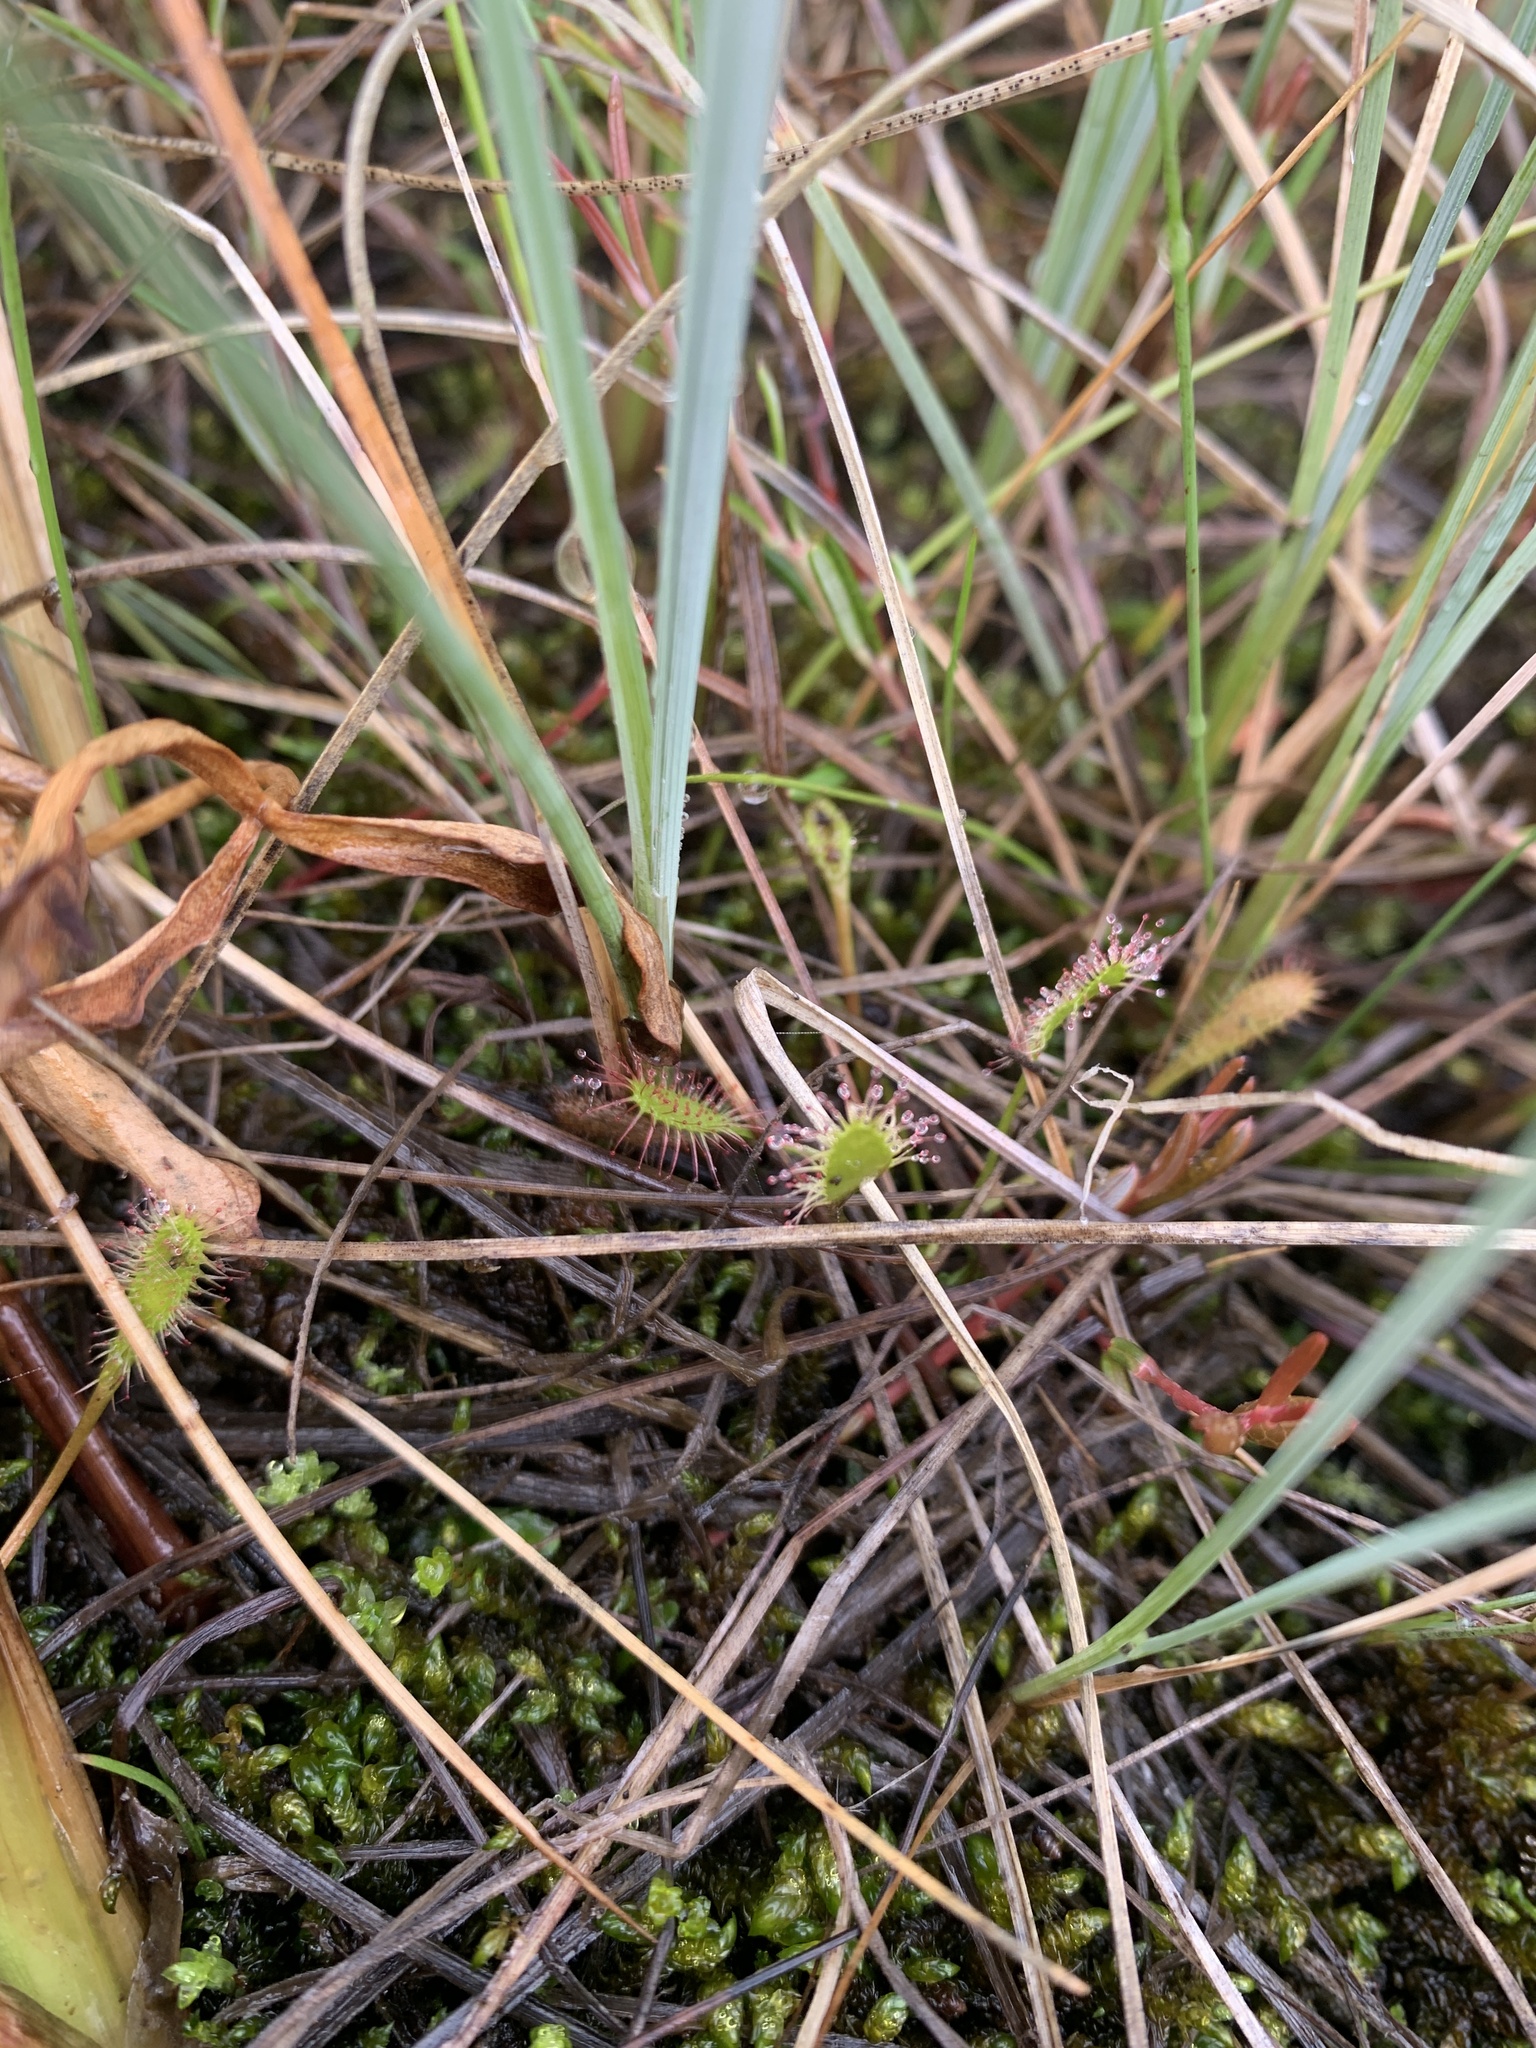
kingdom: Plantae
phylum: Tracheophyta
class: Magnoliopsida
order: Caryophyllales
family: Droseraceae
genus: Drosera
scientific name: Drosera anglica
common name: Great sundew
